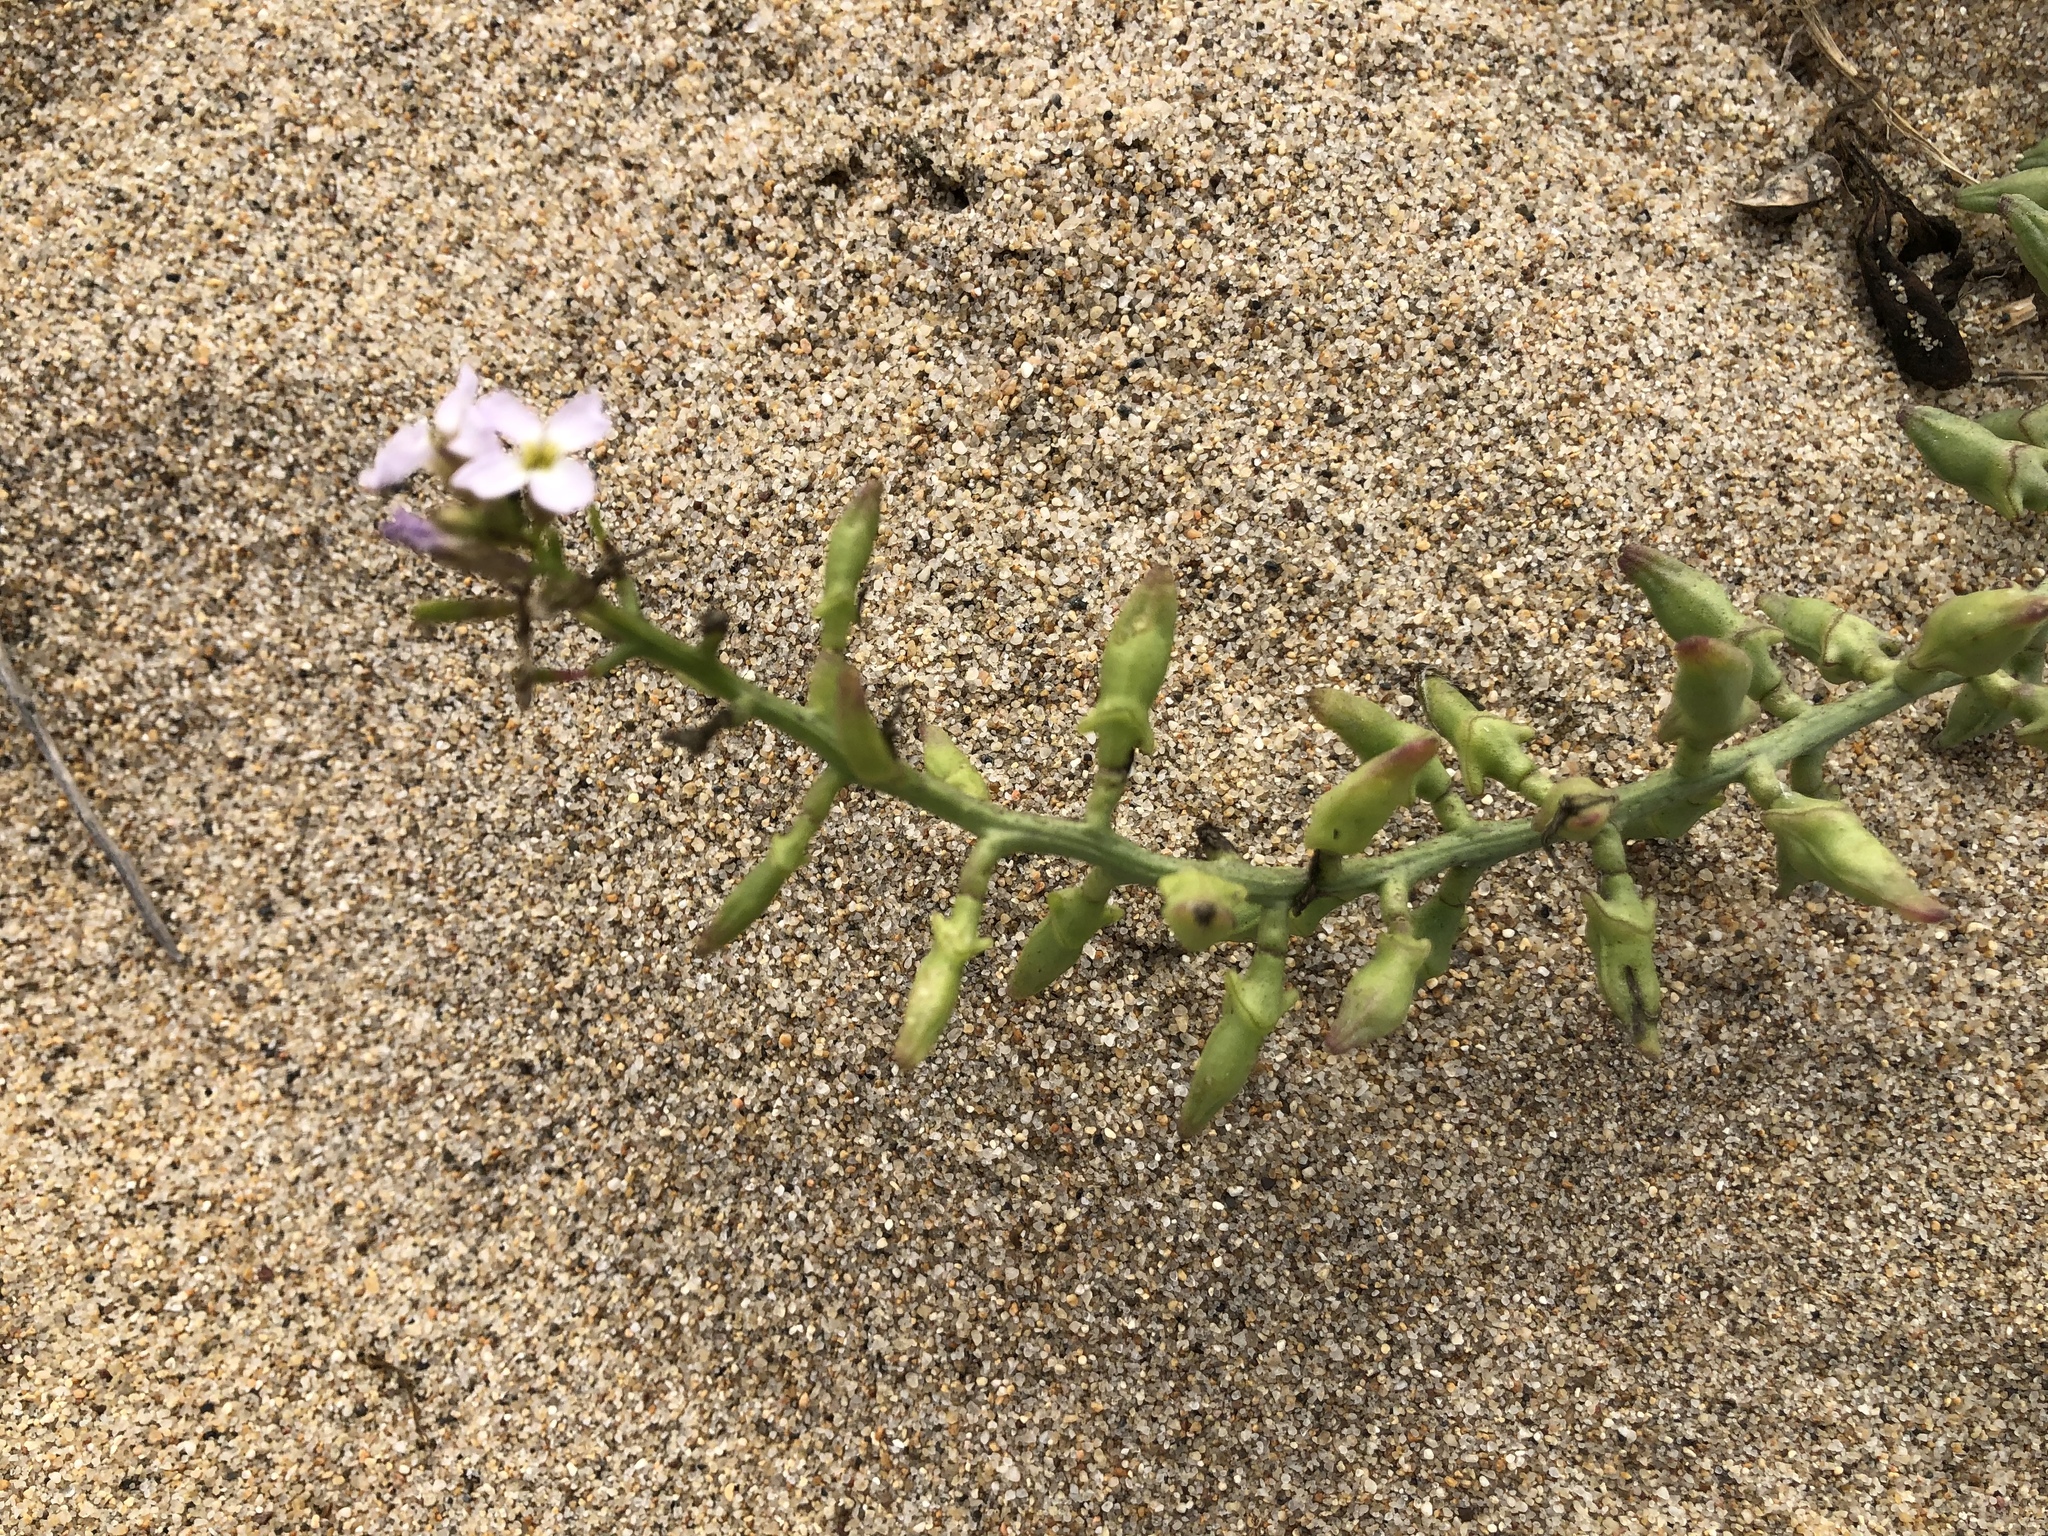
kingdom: Plantae
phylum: Tracheophyta
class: Magnoliopsida
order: Brassicales
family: Brassicaceae
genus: Cakile
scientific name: Cakile maritima
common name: Sea rocket
